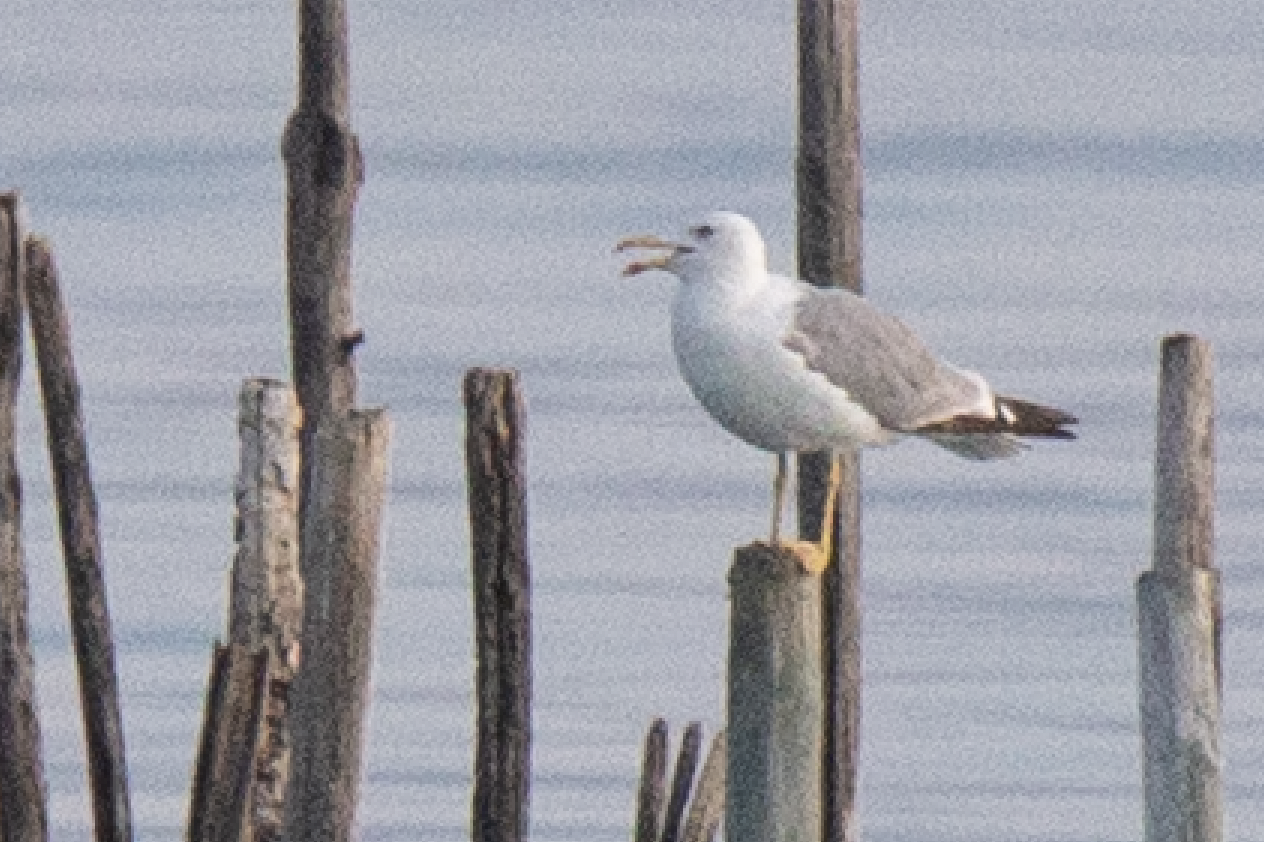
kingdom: Animalia
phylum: Chordata
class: Aves
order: Charadriiformes
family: Laridae
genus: Larus
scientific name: Larus michahellis
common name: Yellow-legged gull
